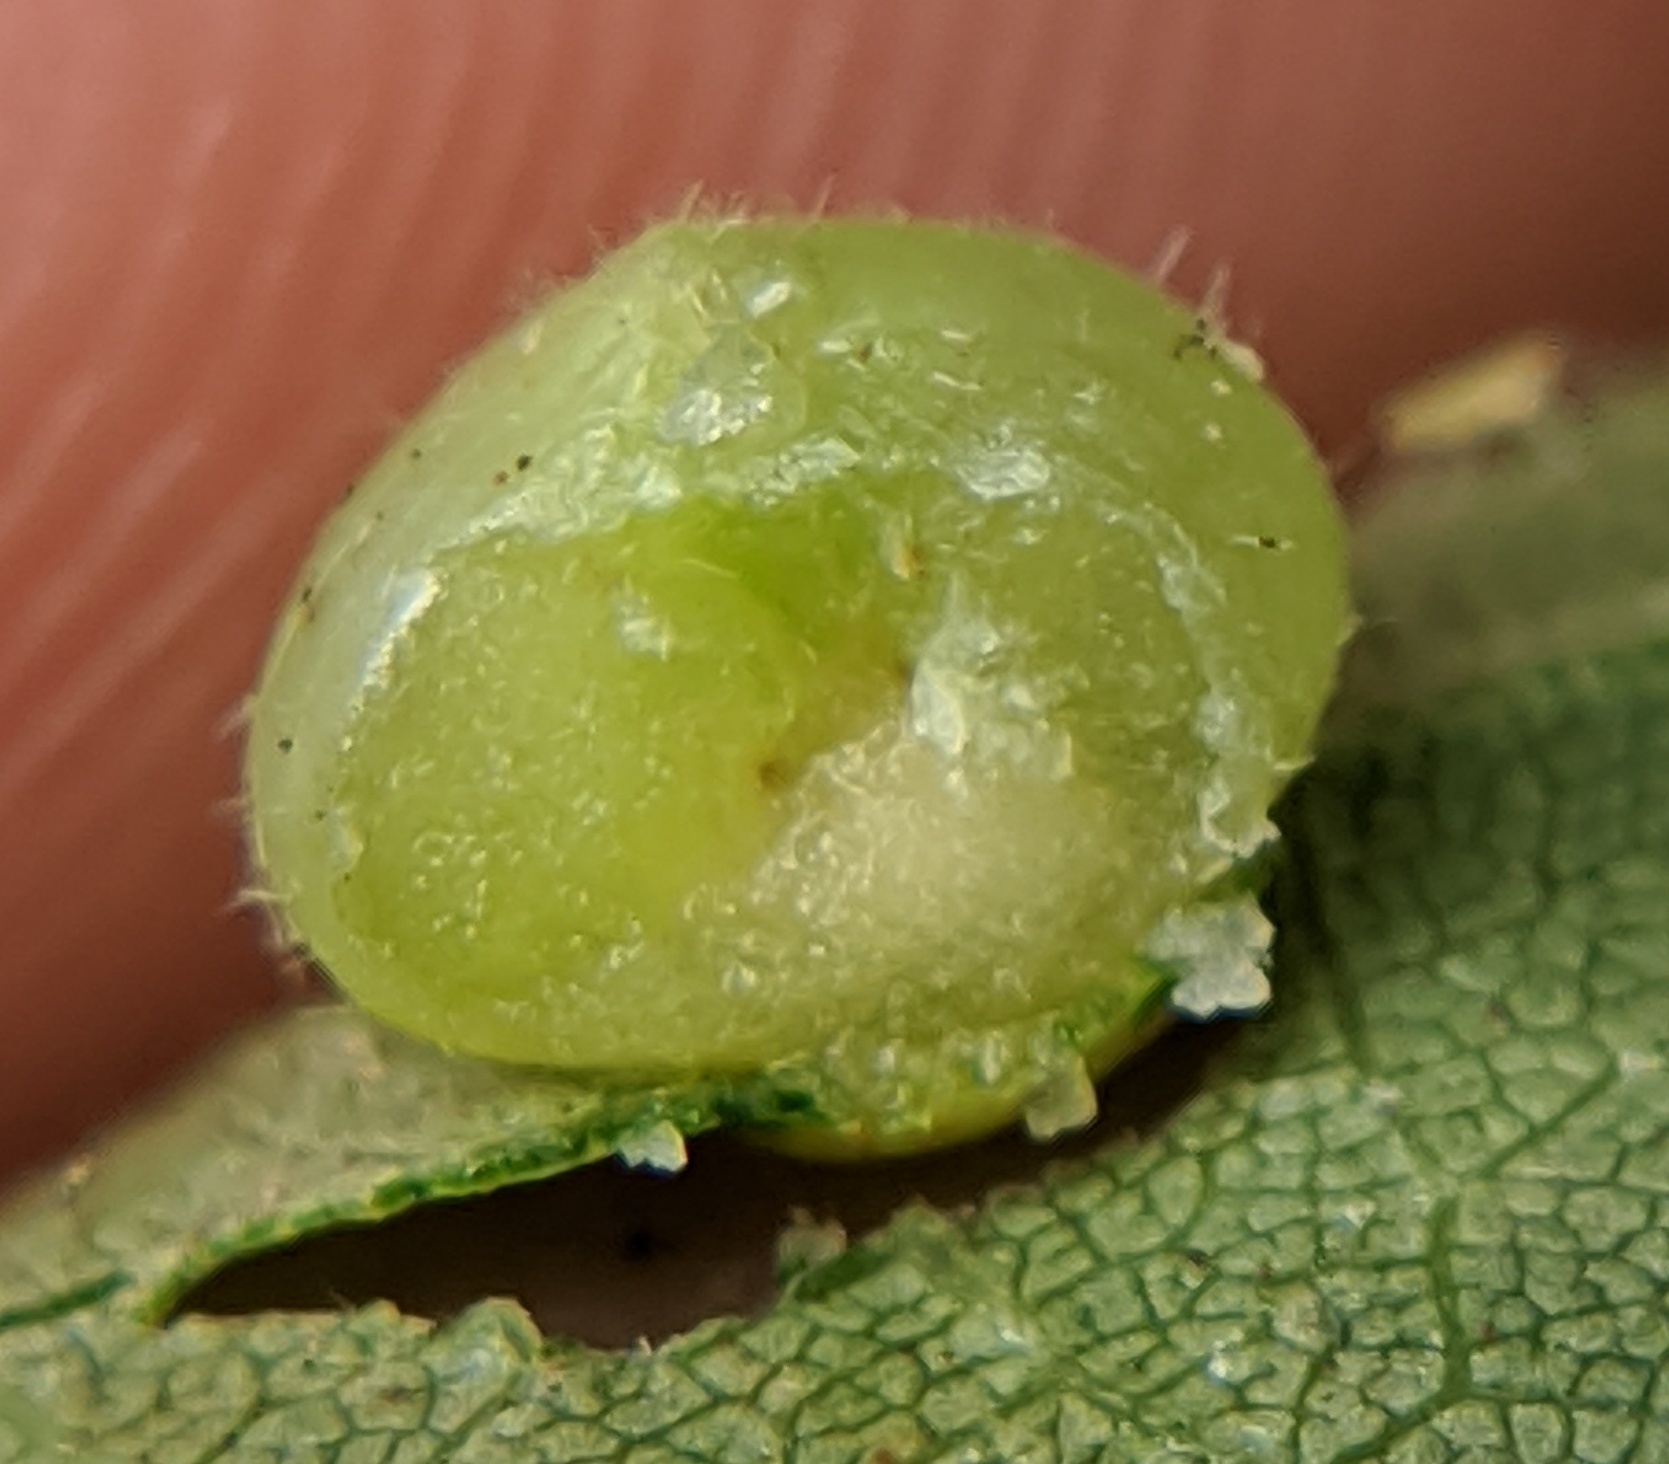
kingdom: Animalia
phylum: Arthropoda
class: Insecta
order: Diptera
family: Cecidomyiidae
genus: Caryomyia
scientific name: Caryomyia conoidea
